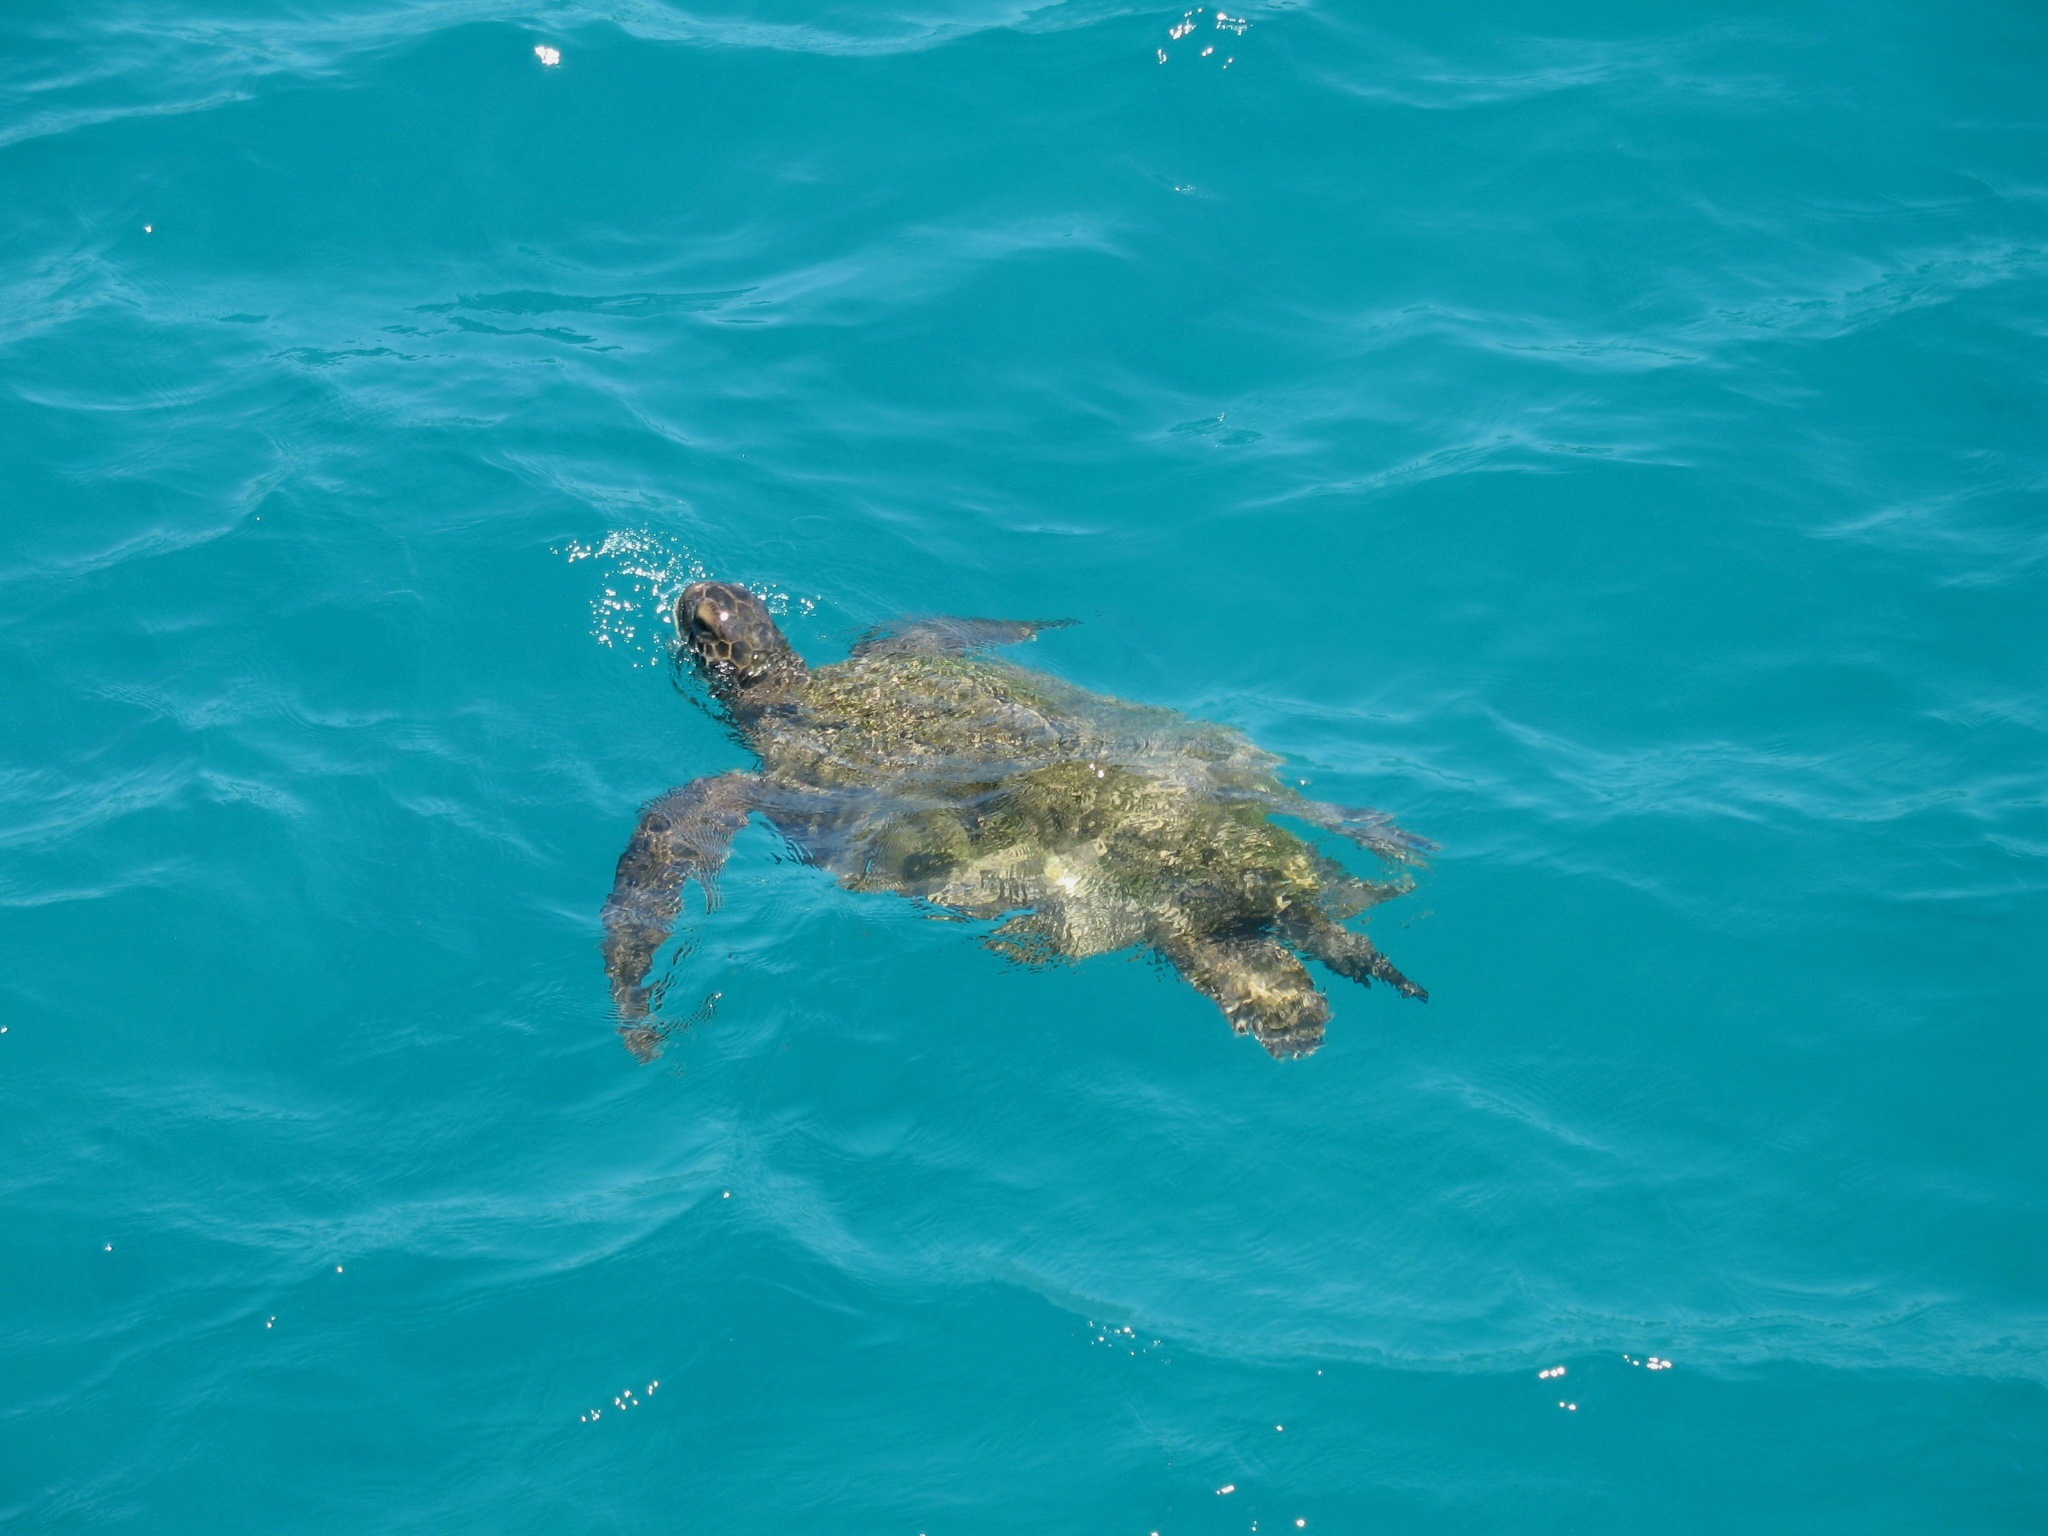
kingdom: Animalia
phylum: Chordata
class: Testudines
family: Cheloniidae
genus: Chelonia
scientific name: Chelonia mydas
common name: Green turtle
